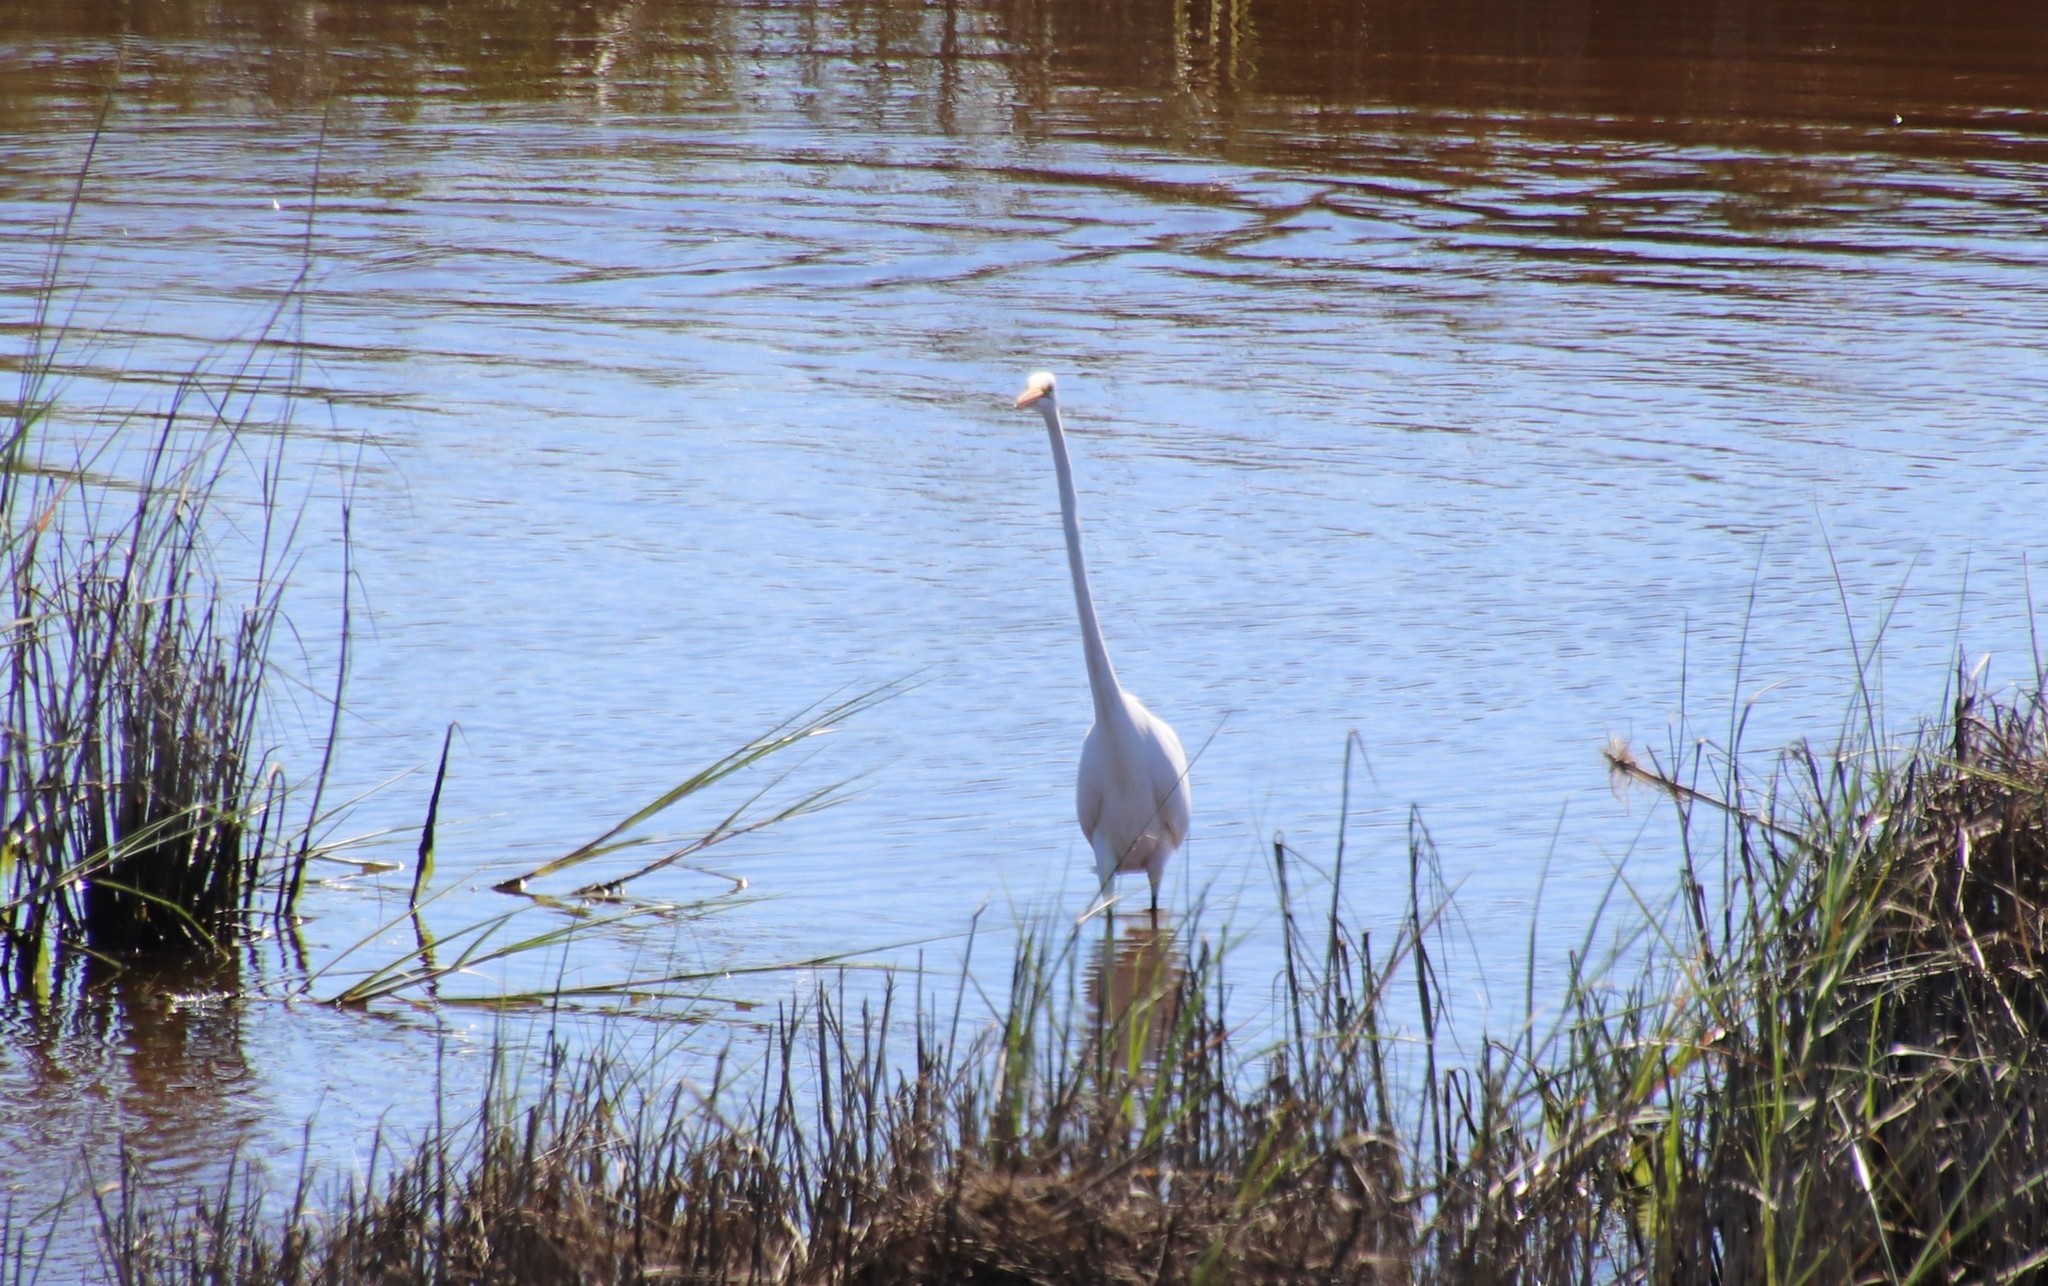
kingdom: Animalia
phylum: Chordata
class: Aves
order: Pelecaniformes
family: Ardeidae
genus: Ardea
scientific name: Ardea alba
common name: Great egret
